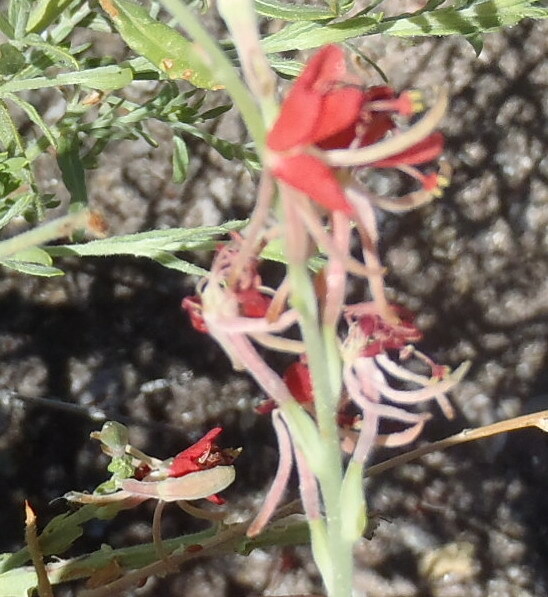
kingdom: Plantae
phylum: Tracheophyta
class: Magnoliopsida
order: Myrtales
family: Onagraceae
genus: Oenothera
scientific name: Oenothera suffrutescens
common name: Scarlet beeblossom
